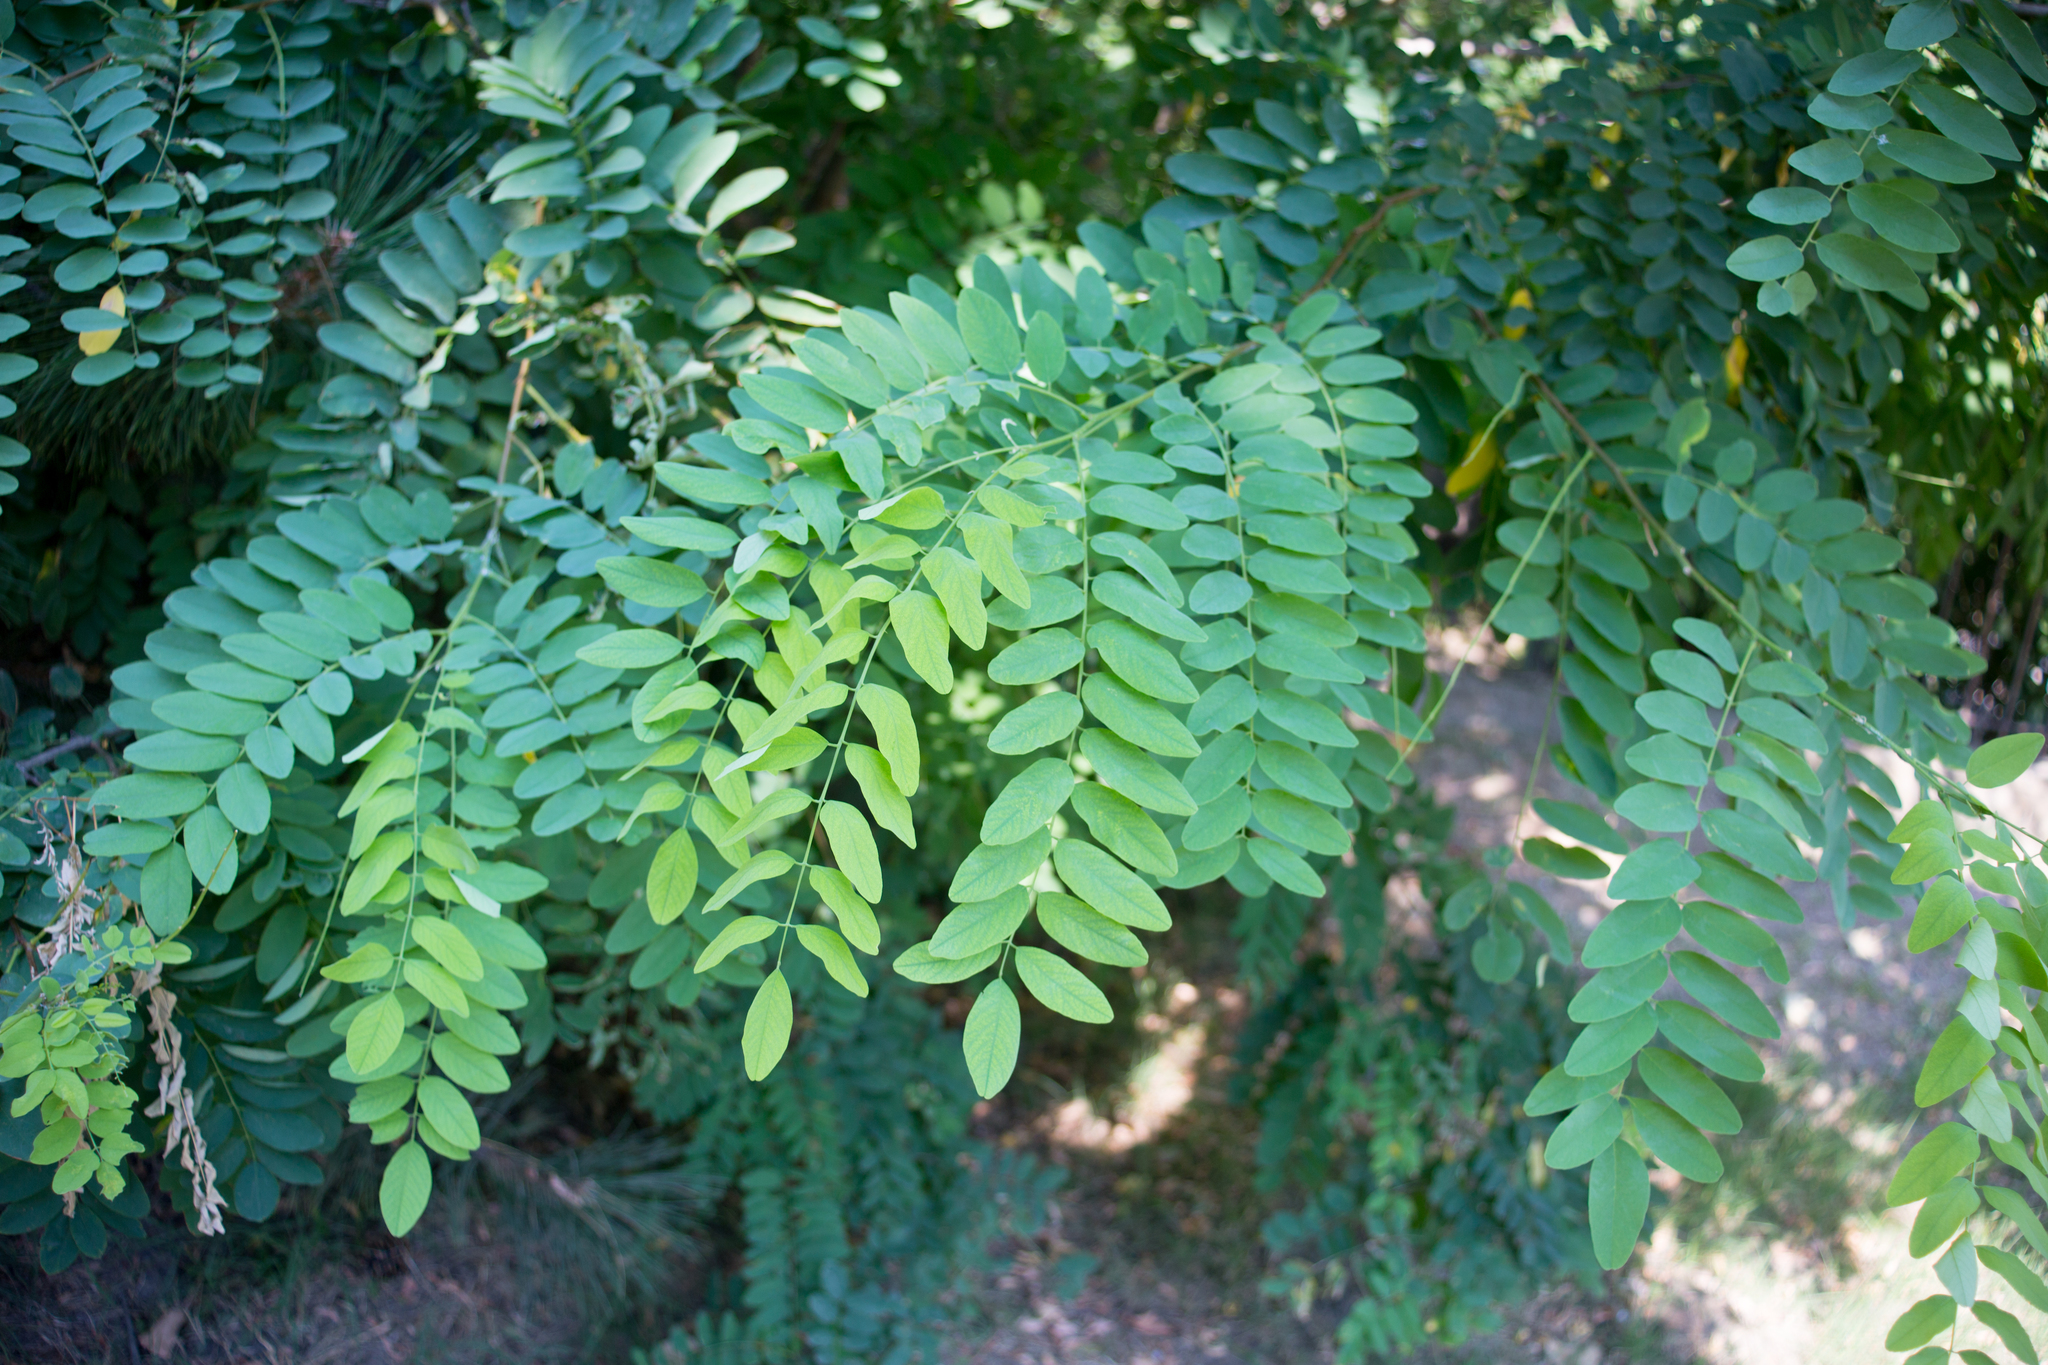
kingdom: Plantae
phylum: Tracheophyta
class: Magnoliopsida
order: Fabales
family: Fabaceae
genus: Robinia
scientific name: Robinia pseudoacacia
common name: Black locust
